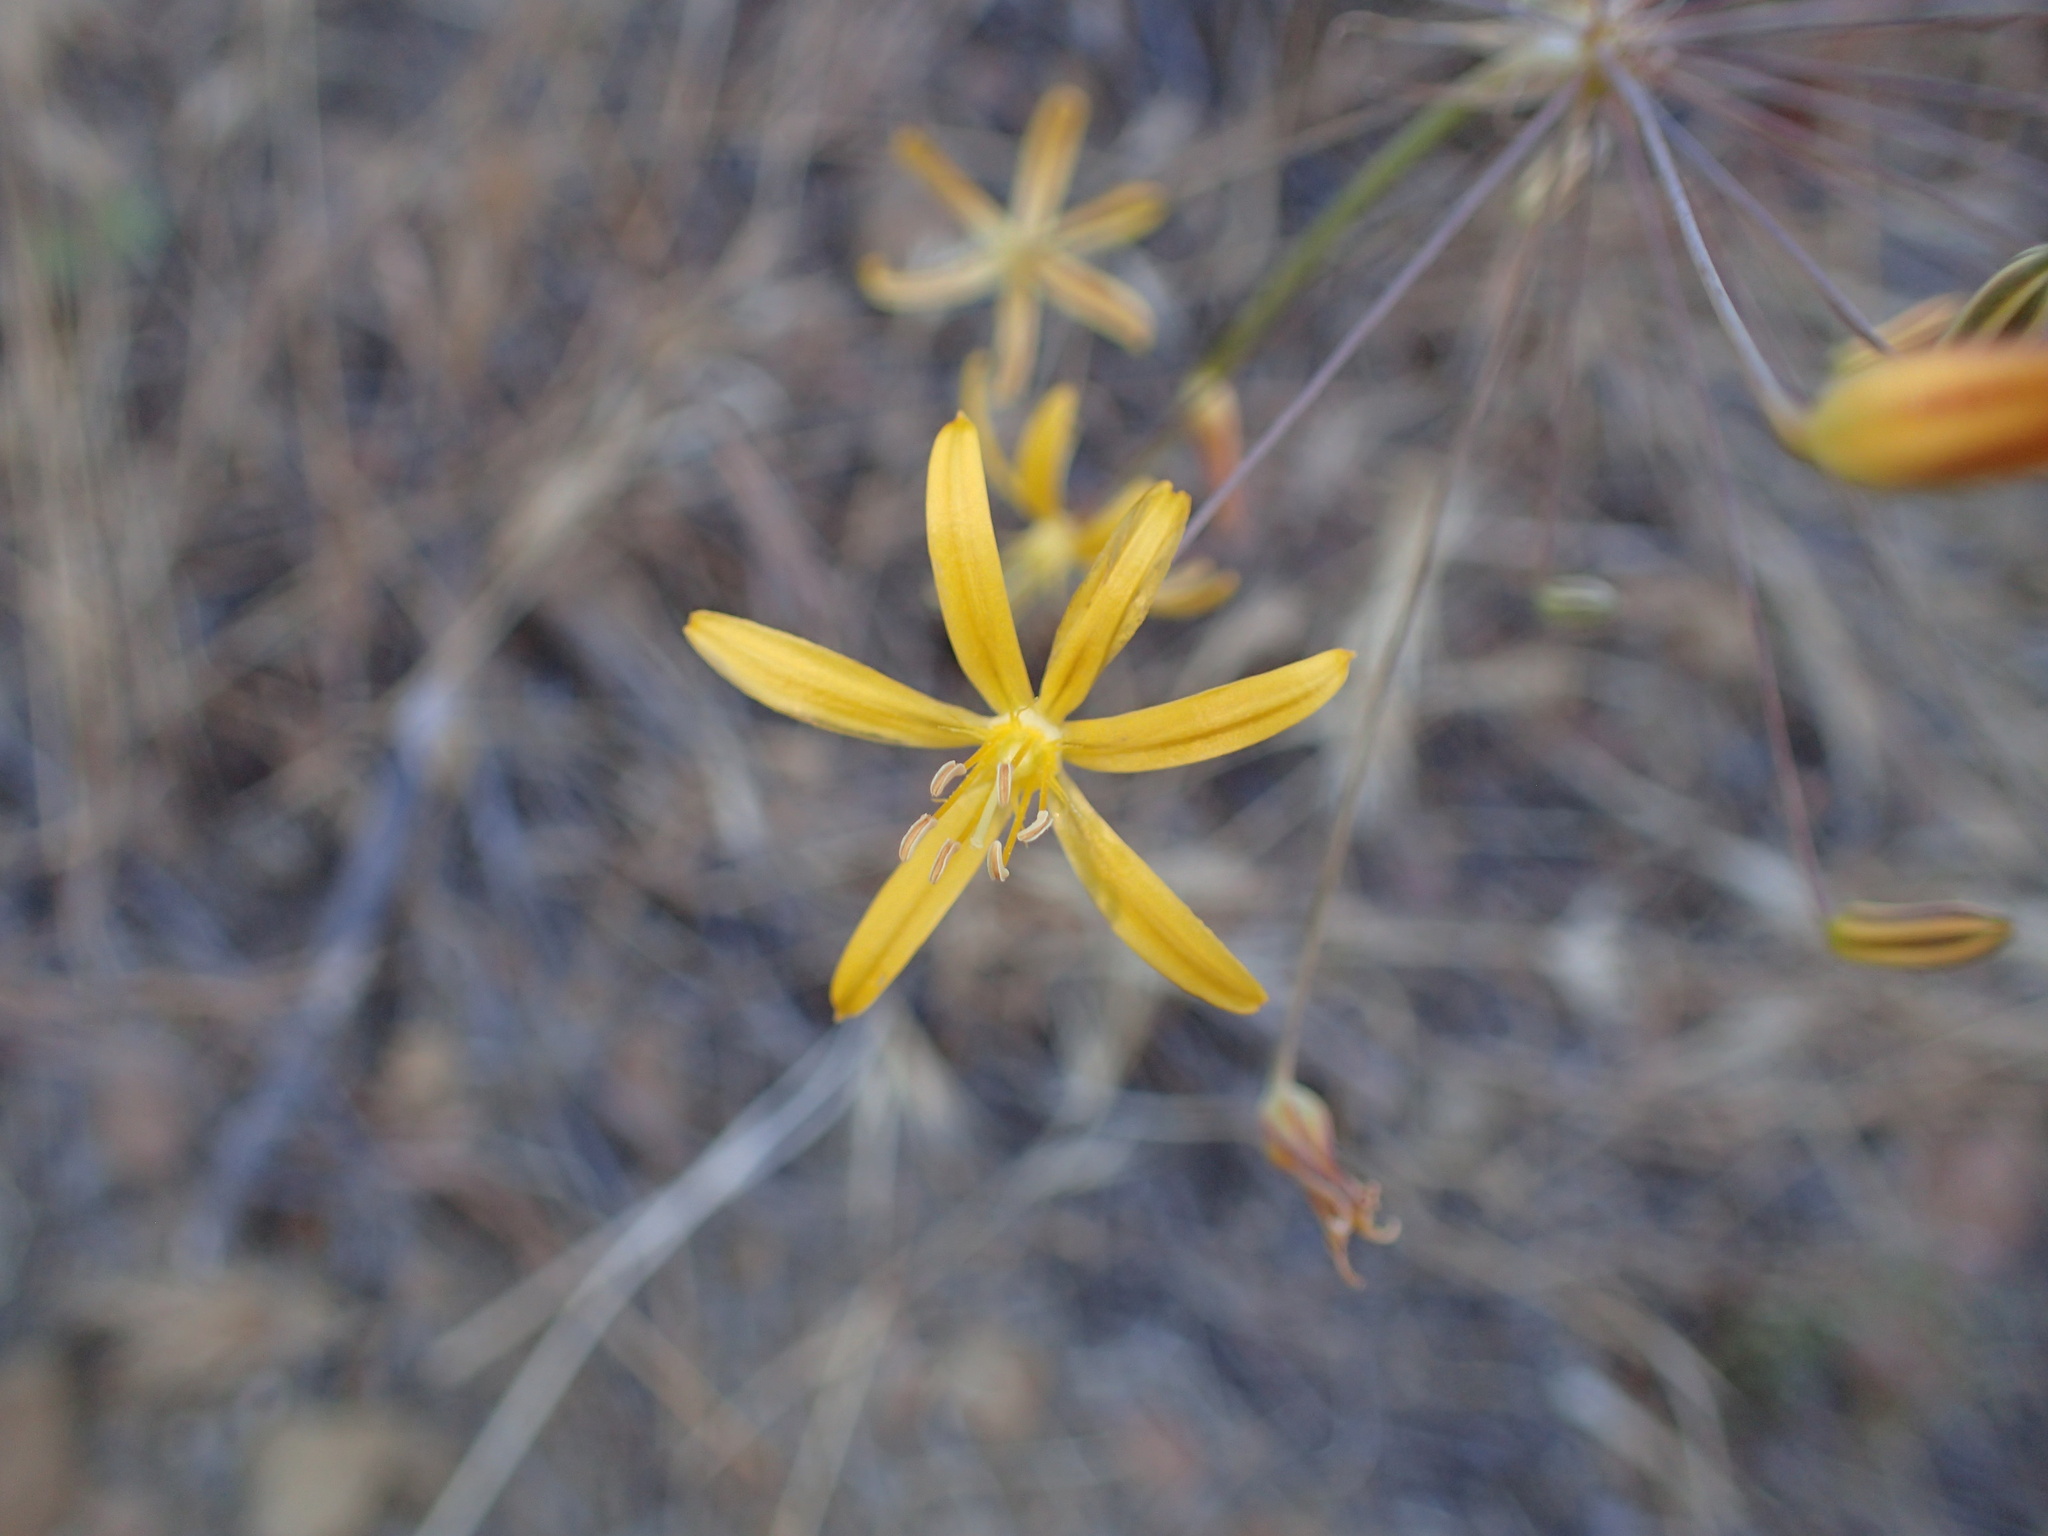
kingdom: Plantae
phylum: Tracheophyta
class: Liliopsida
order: Asparagales
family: Asparagaceae
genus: Bloomeria
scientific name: Bloomeria crocea
